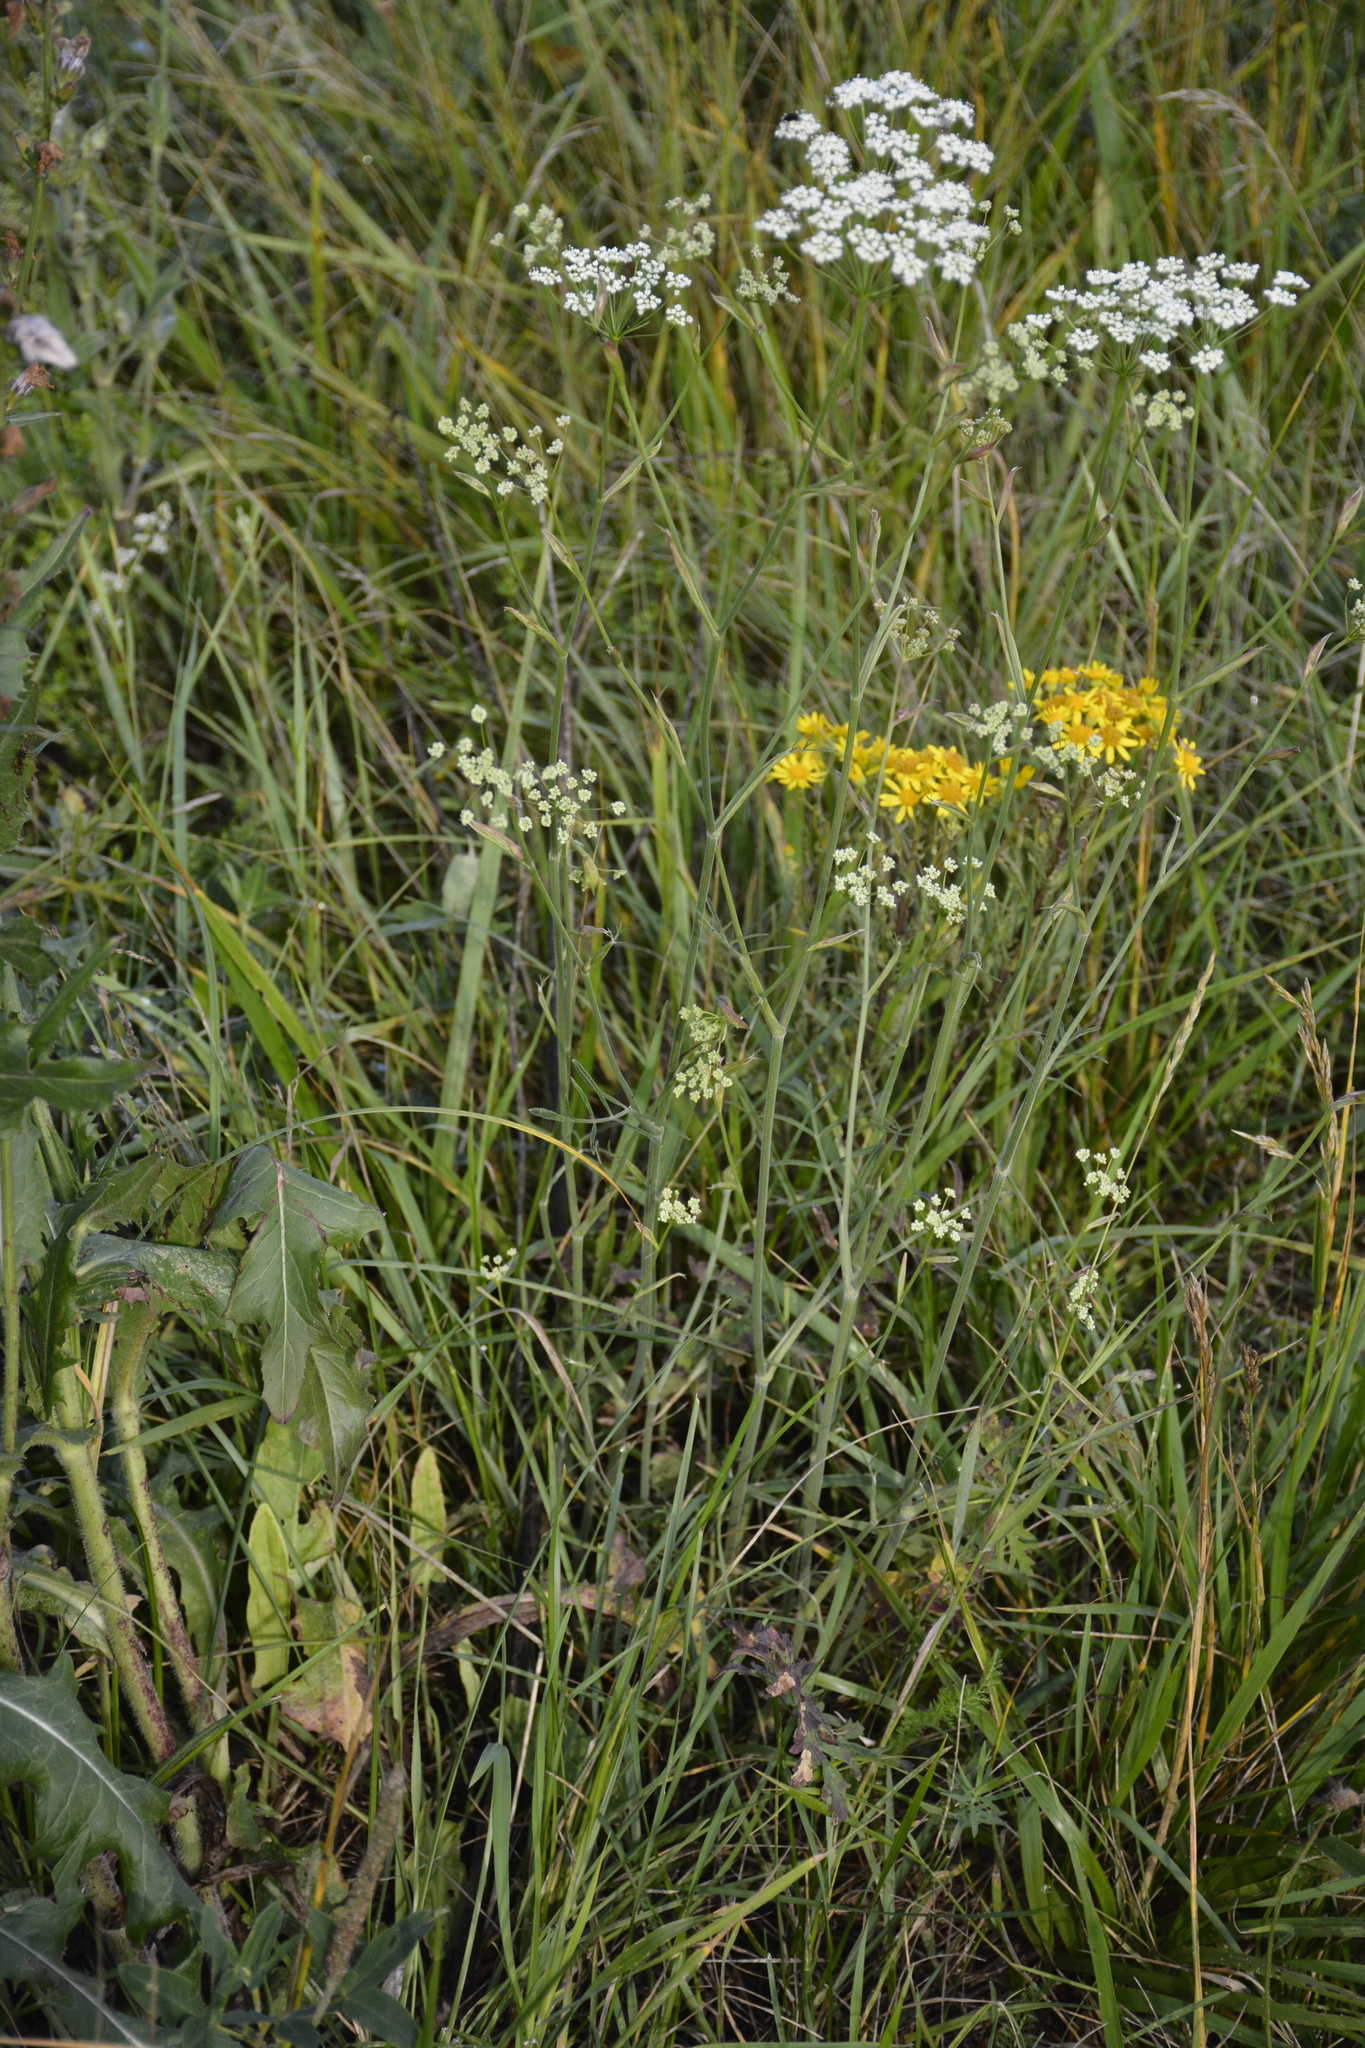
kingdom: Plantae
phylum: Tracheophyta
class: Magnoliopsida
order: Apiales
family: Apiaceae
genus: Pimpinella
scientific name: Pimpinella saxifraga
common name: Burnet-saxifrage
